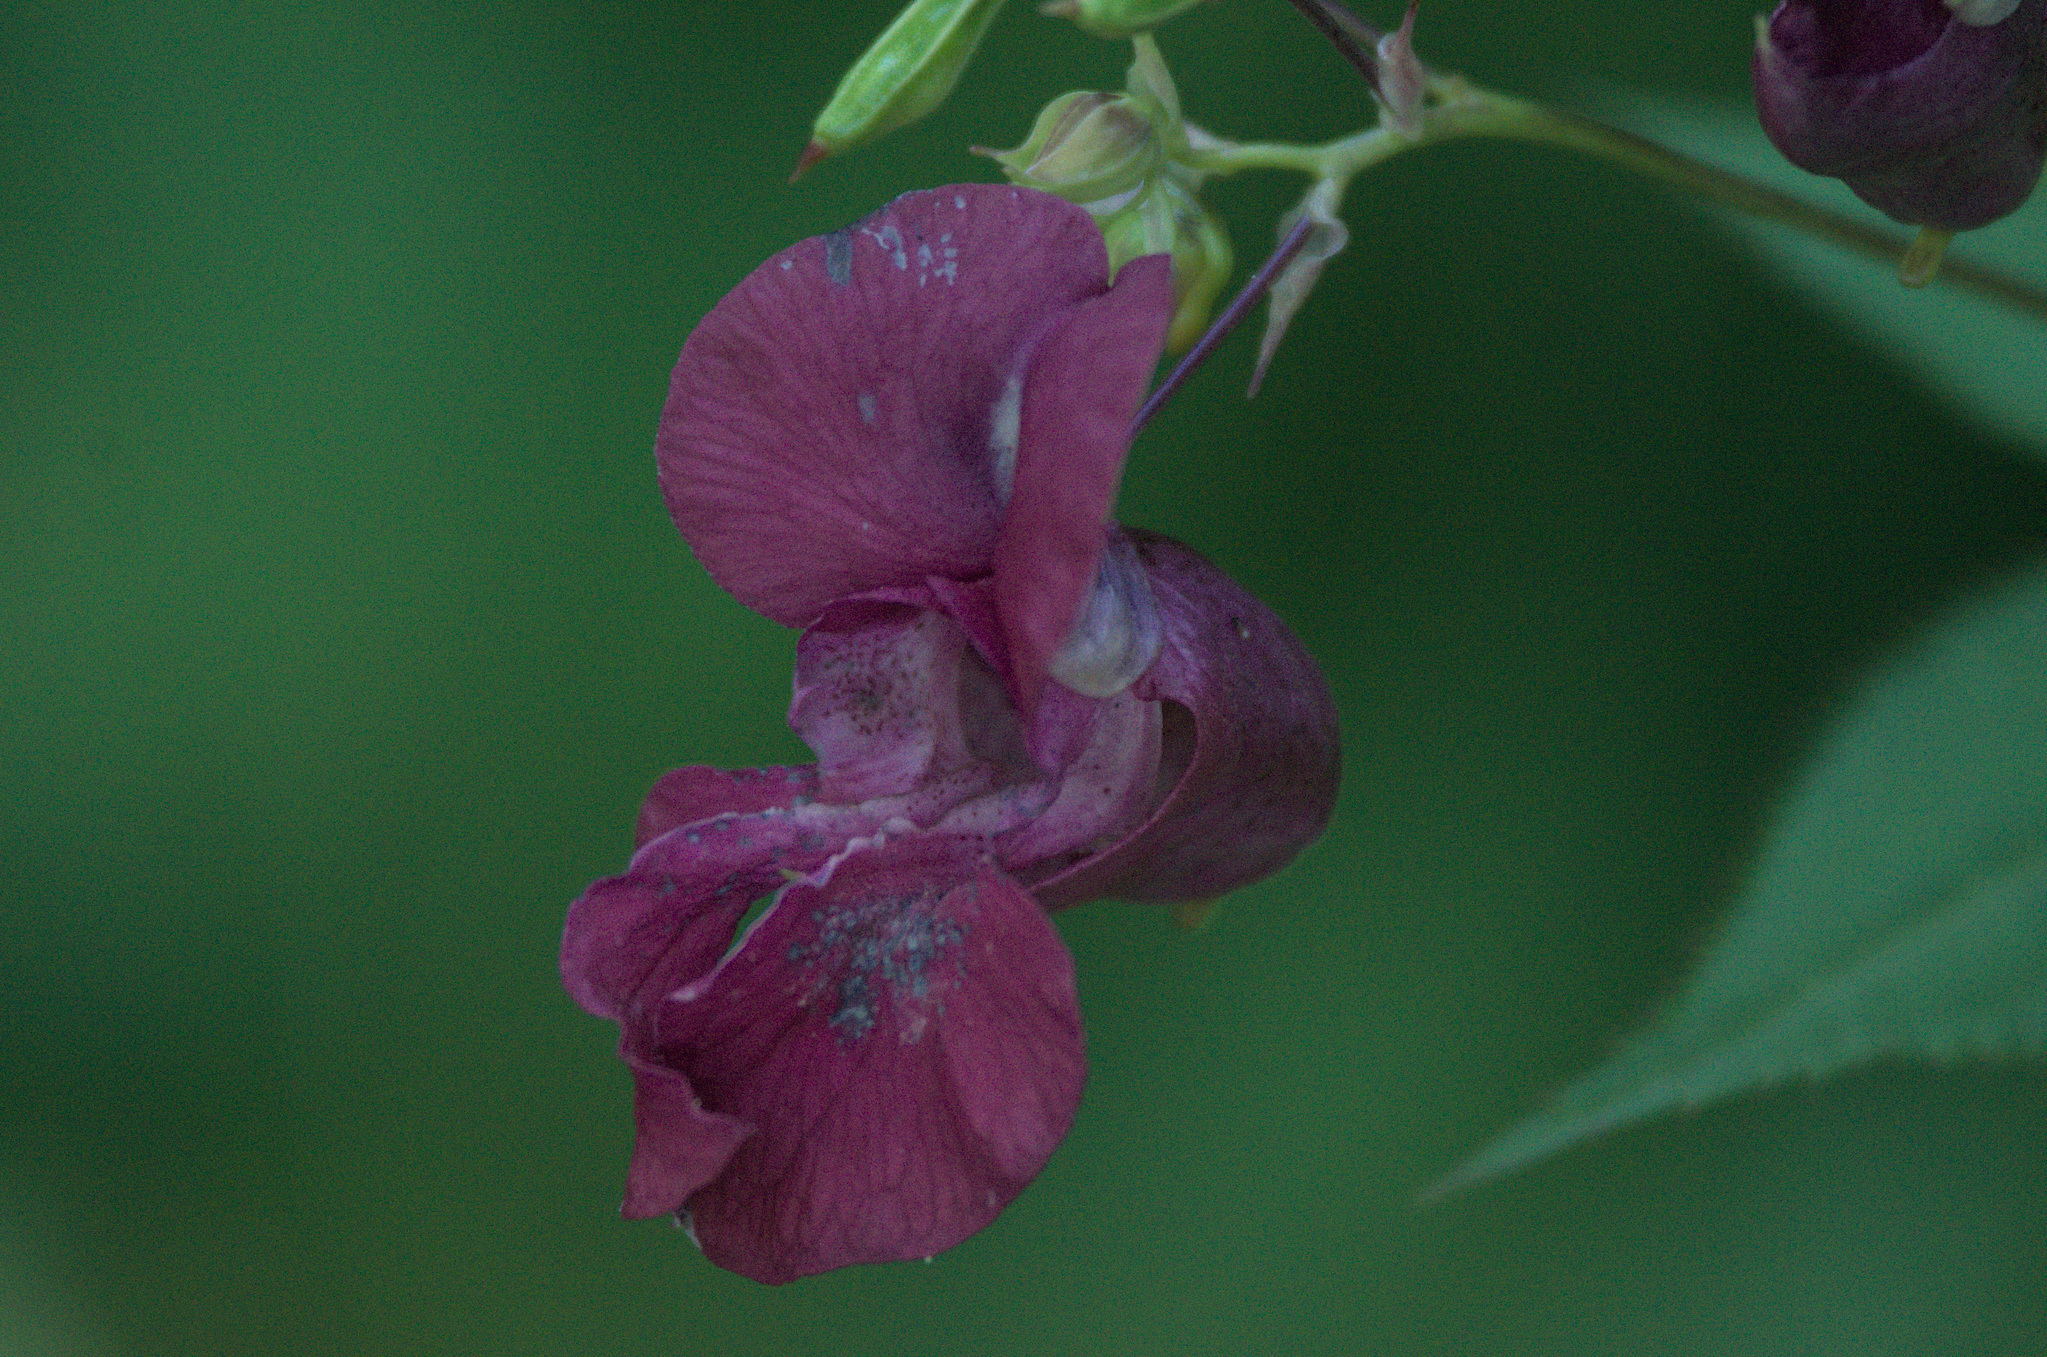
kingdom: Plantae
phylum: Tracheophyta
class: Magnoliopsida
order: Ericales
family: Balsaminaceae
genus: Impatiens
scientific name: Impatiens glandulifera
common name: Himalayan balsam
